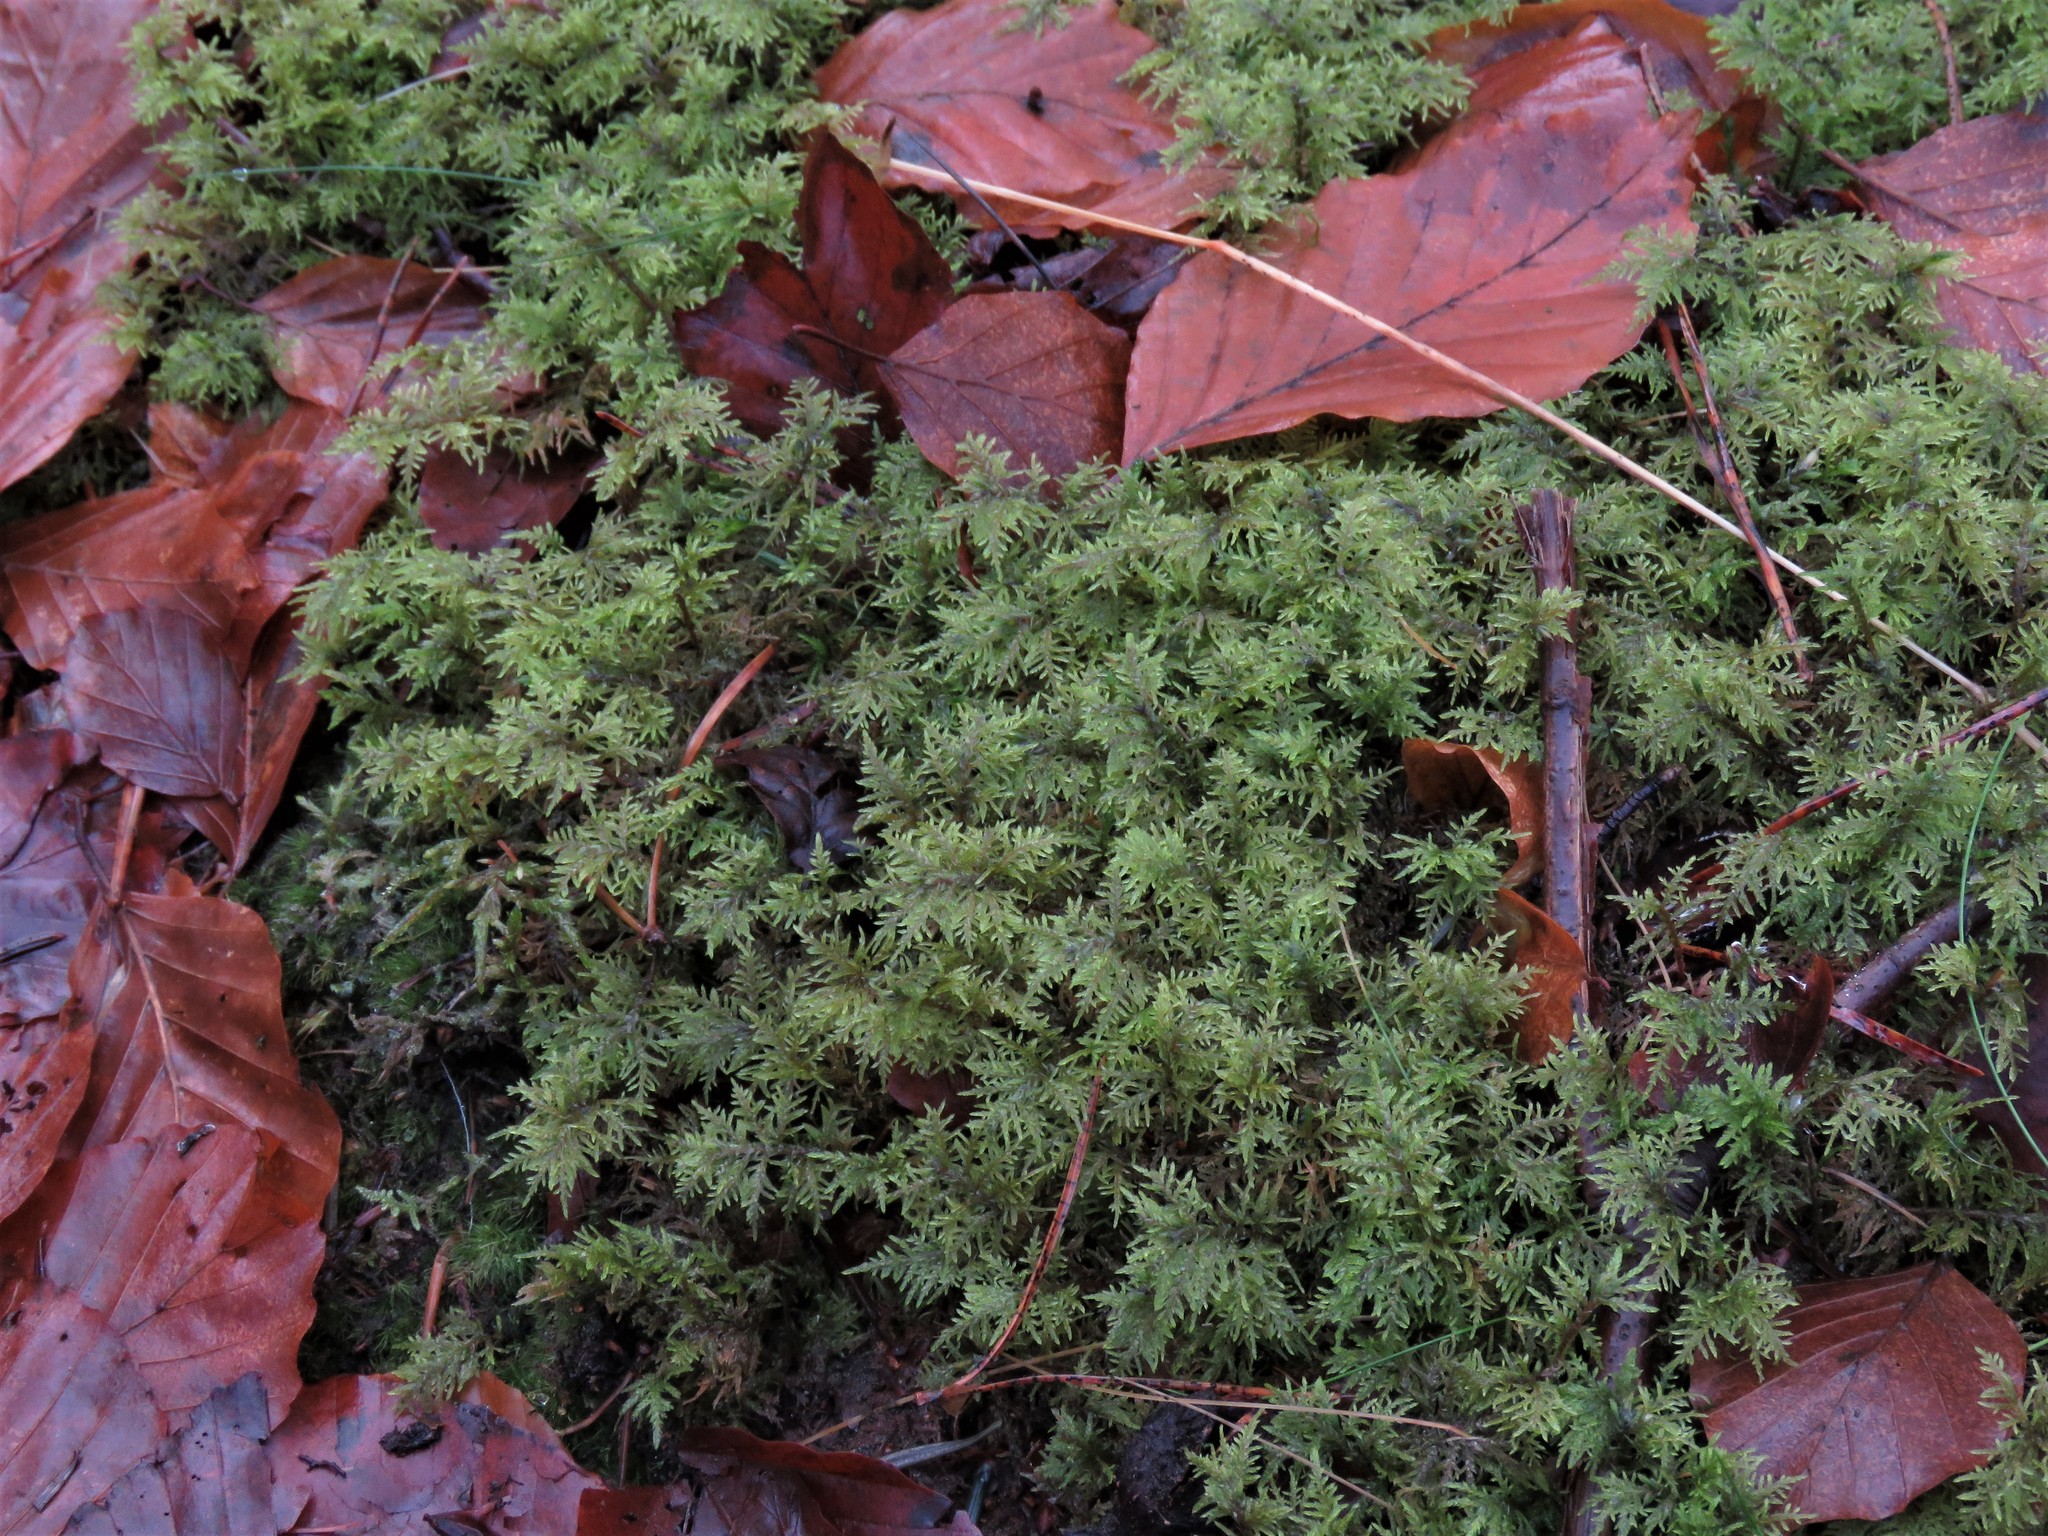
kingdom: Plantae
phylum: Bryophyta
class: Bryopsida
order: Hypnales
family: Hylocomiaceae
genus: Hylocomium
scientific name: Hylocomium splendens
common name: Stairstep moss
